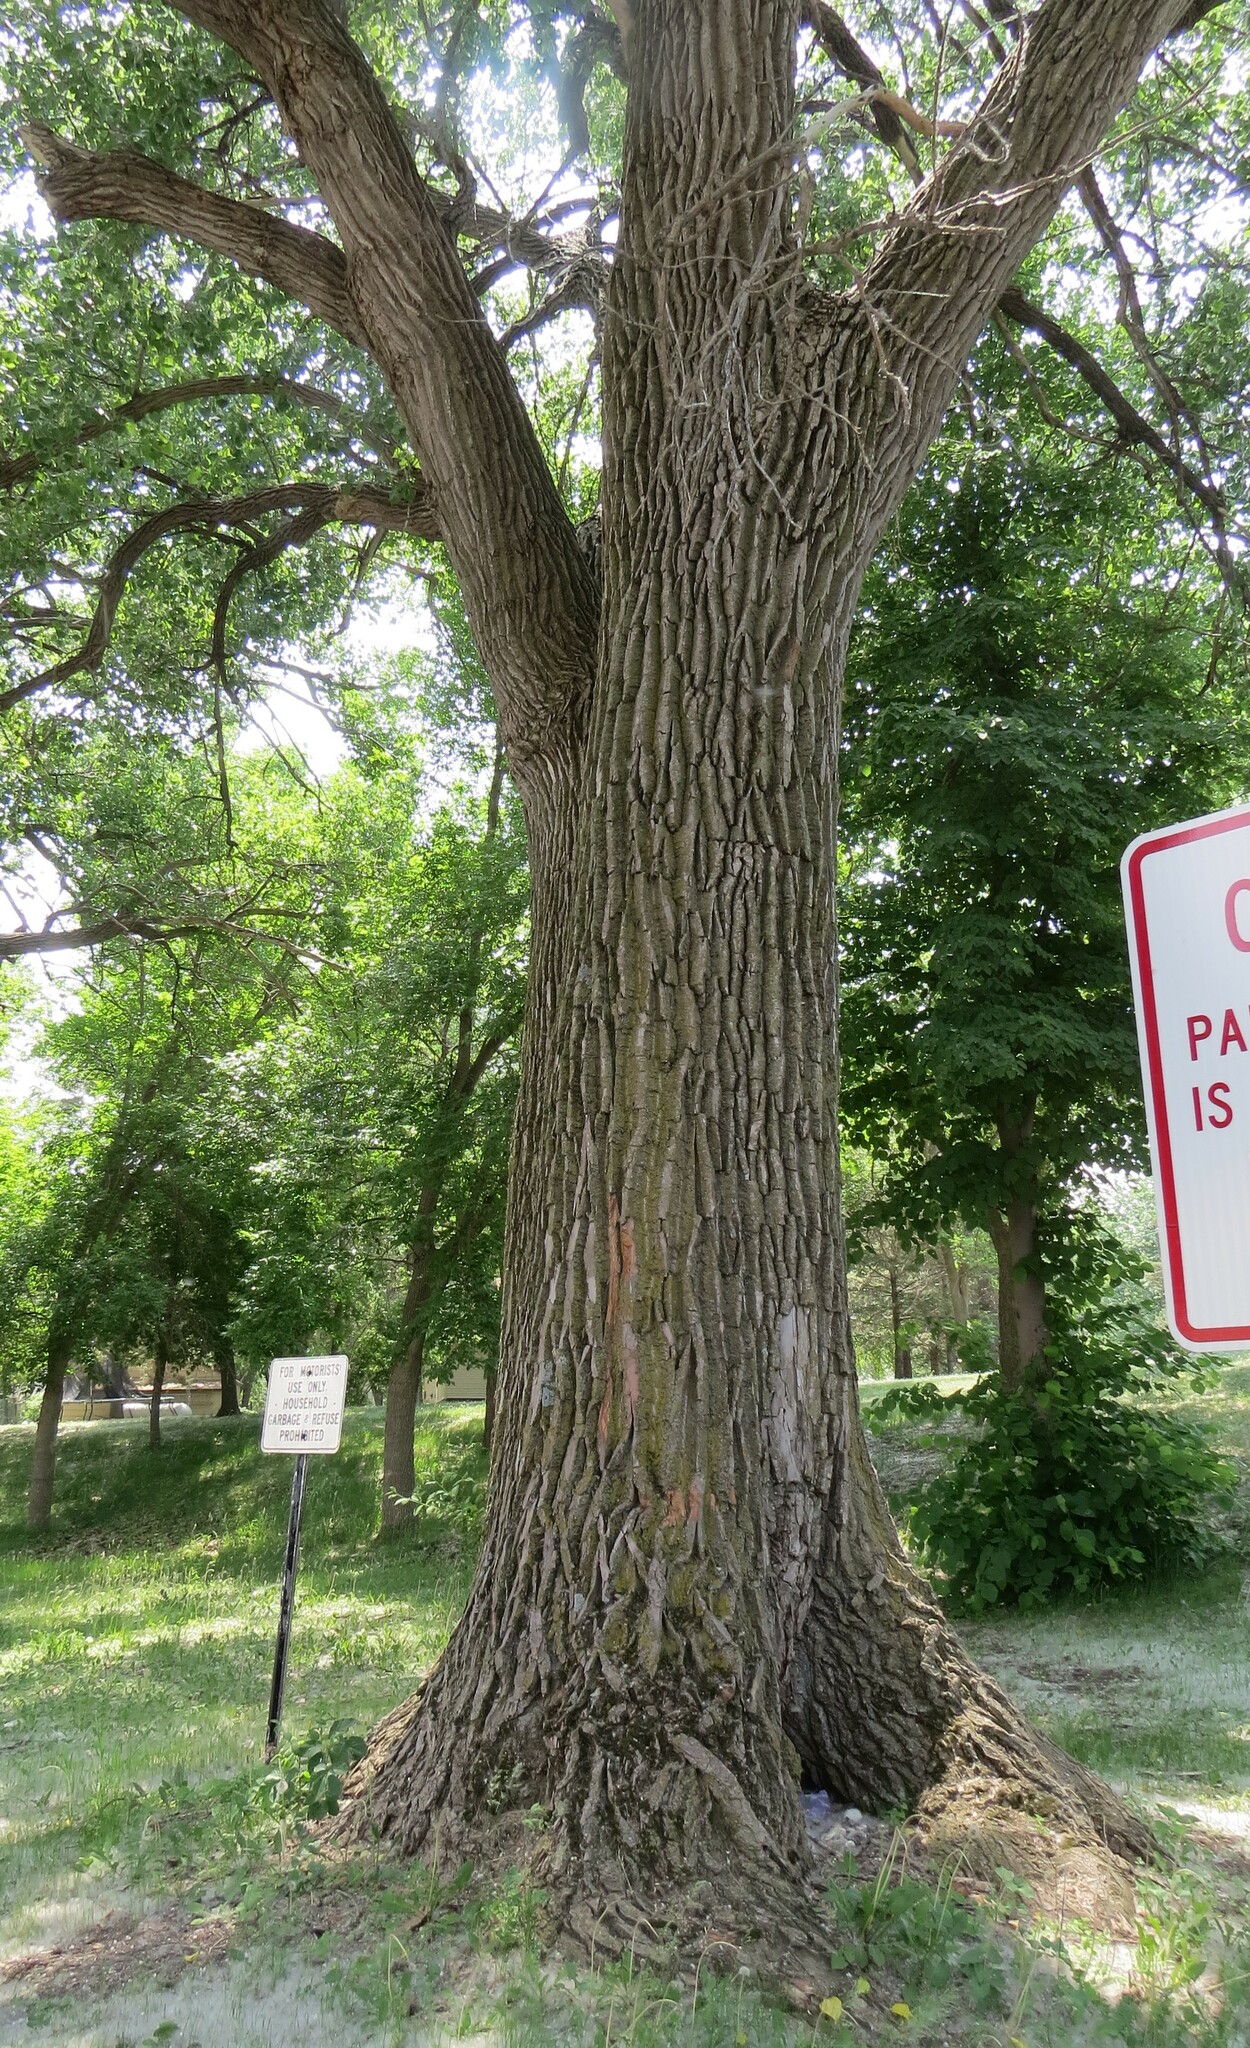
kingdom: Plantae
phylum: Tracheophyta
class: Magnoliopsida
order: Malpighiales
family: Salicaceae
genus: Populus
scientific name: Populus deltoides
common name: Eastern cottonwood
